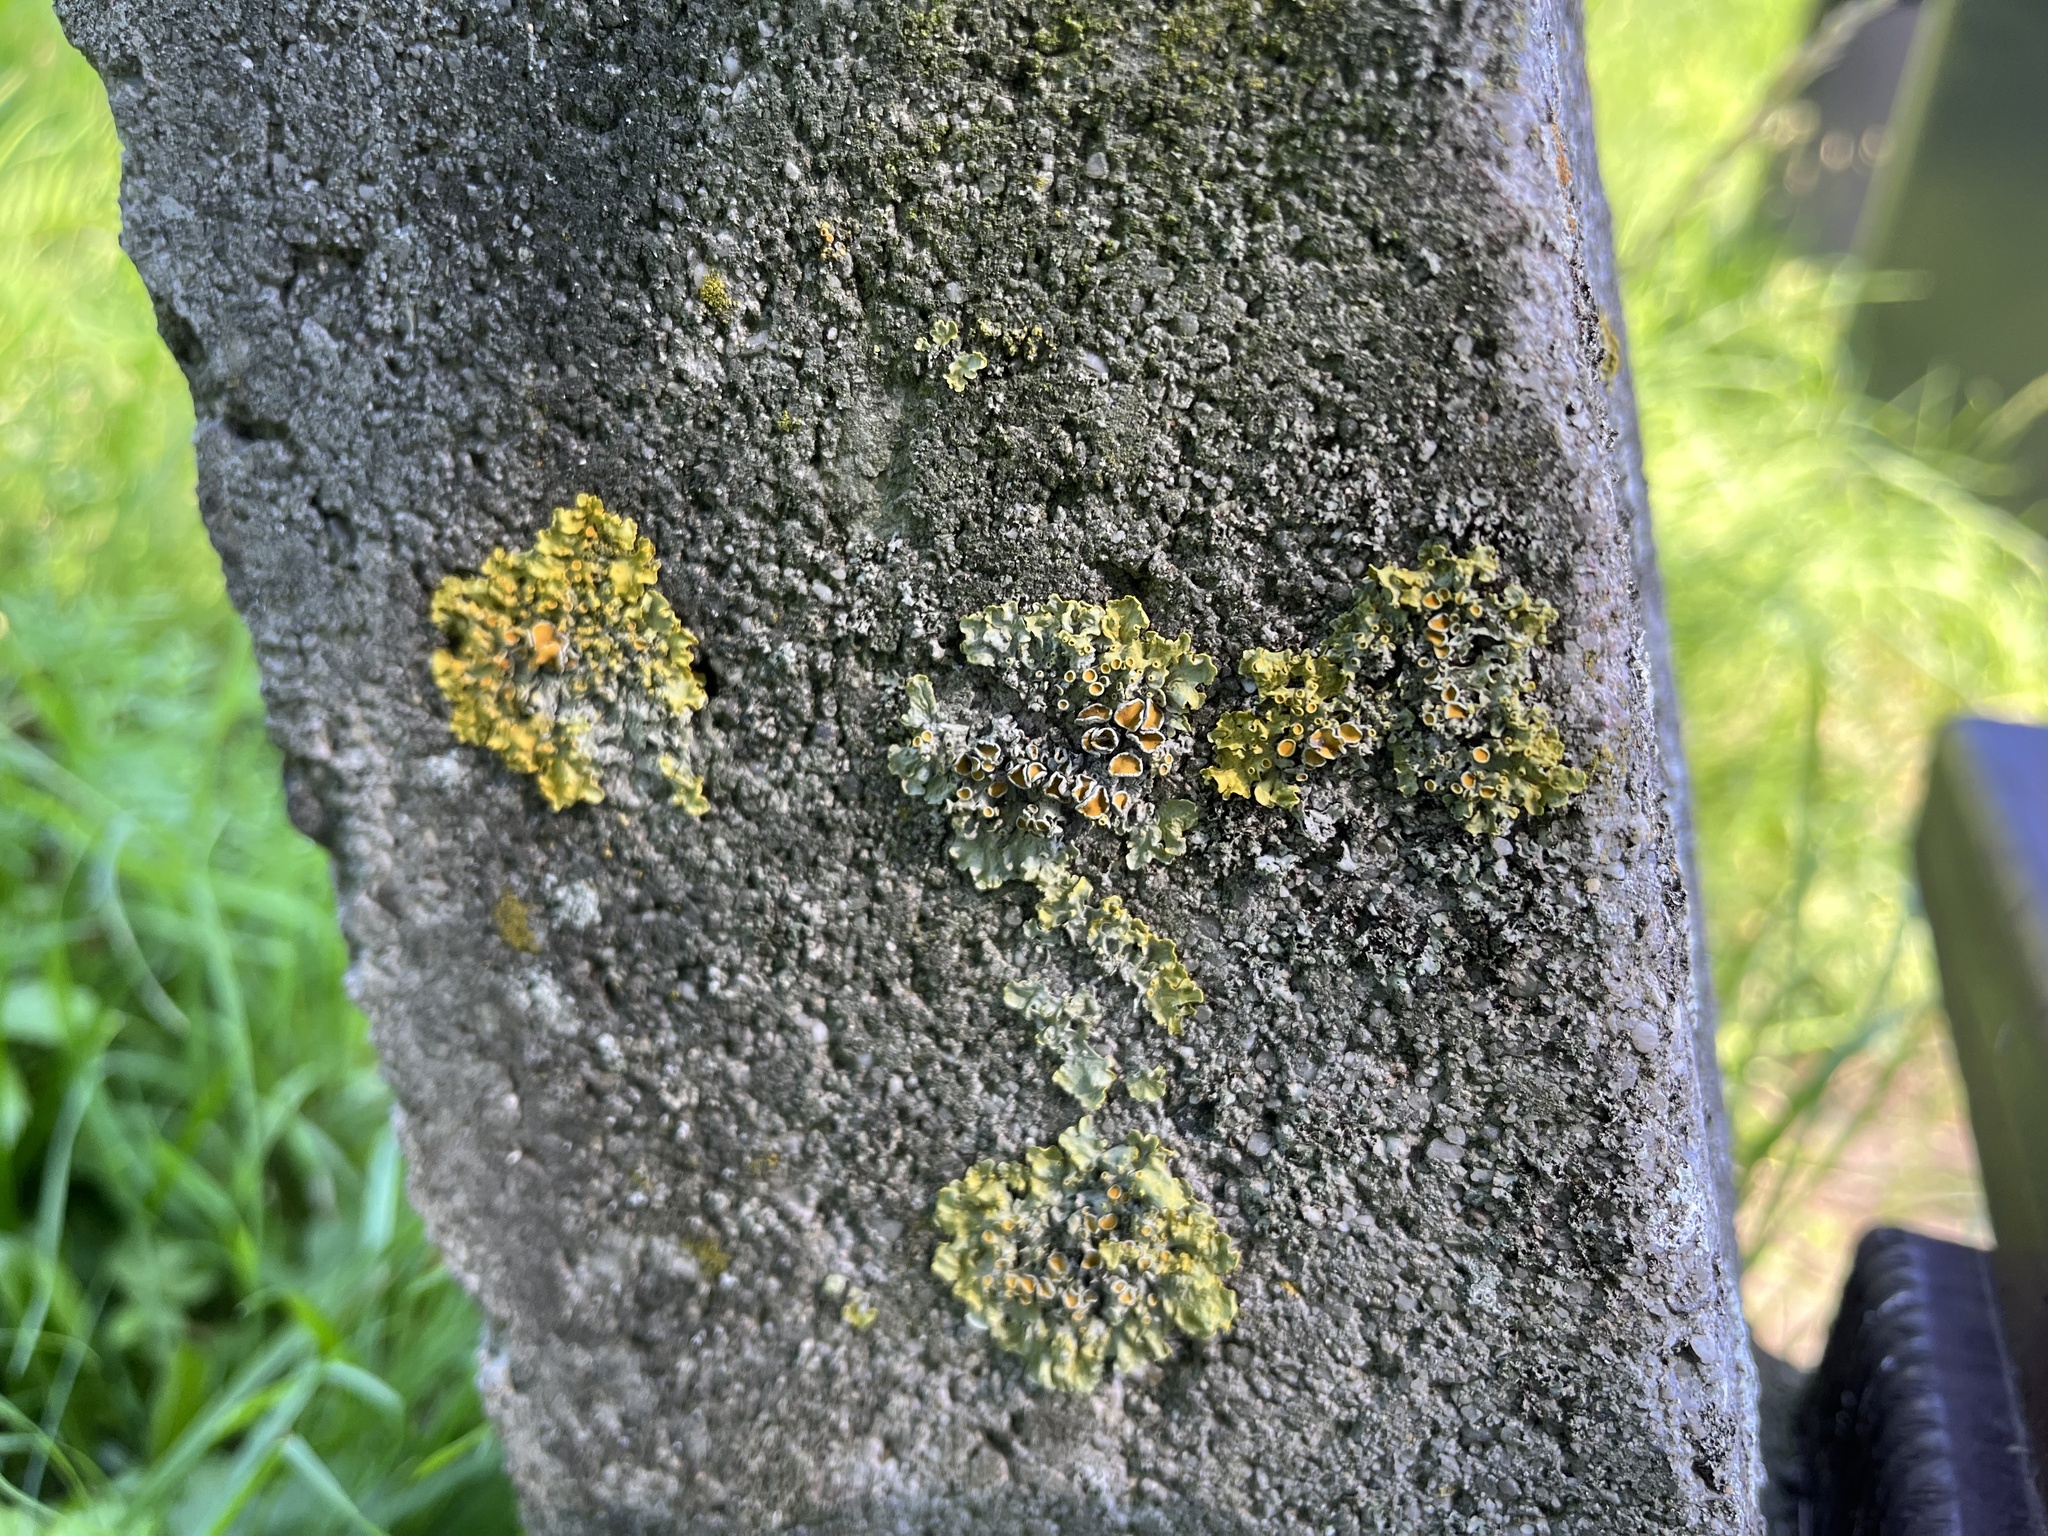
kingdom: Fungi
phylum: Ascomycota
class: Lecanoromycetes
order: Teloschistales
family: Teloschistaceae
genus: Xanthoria
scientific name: Xanthoria parietina
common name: Common orange lichen
